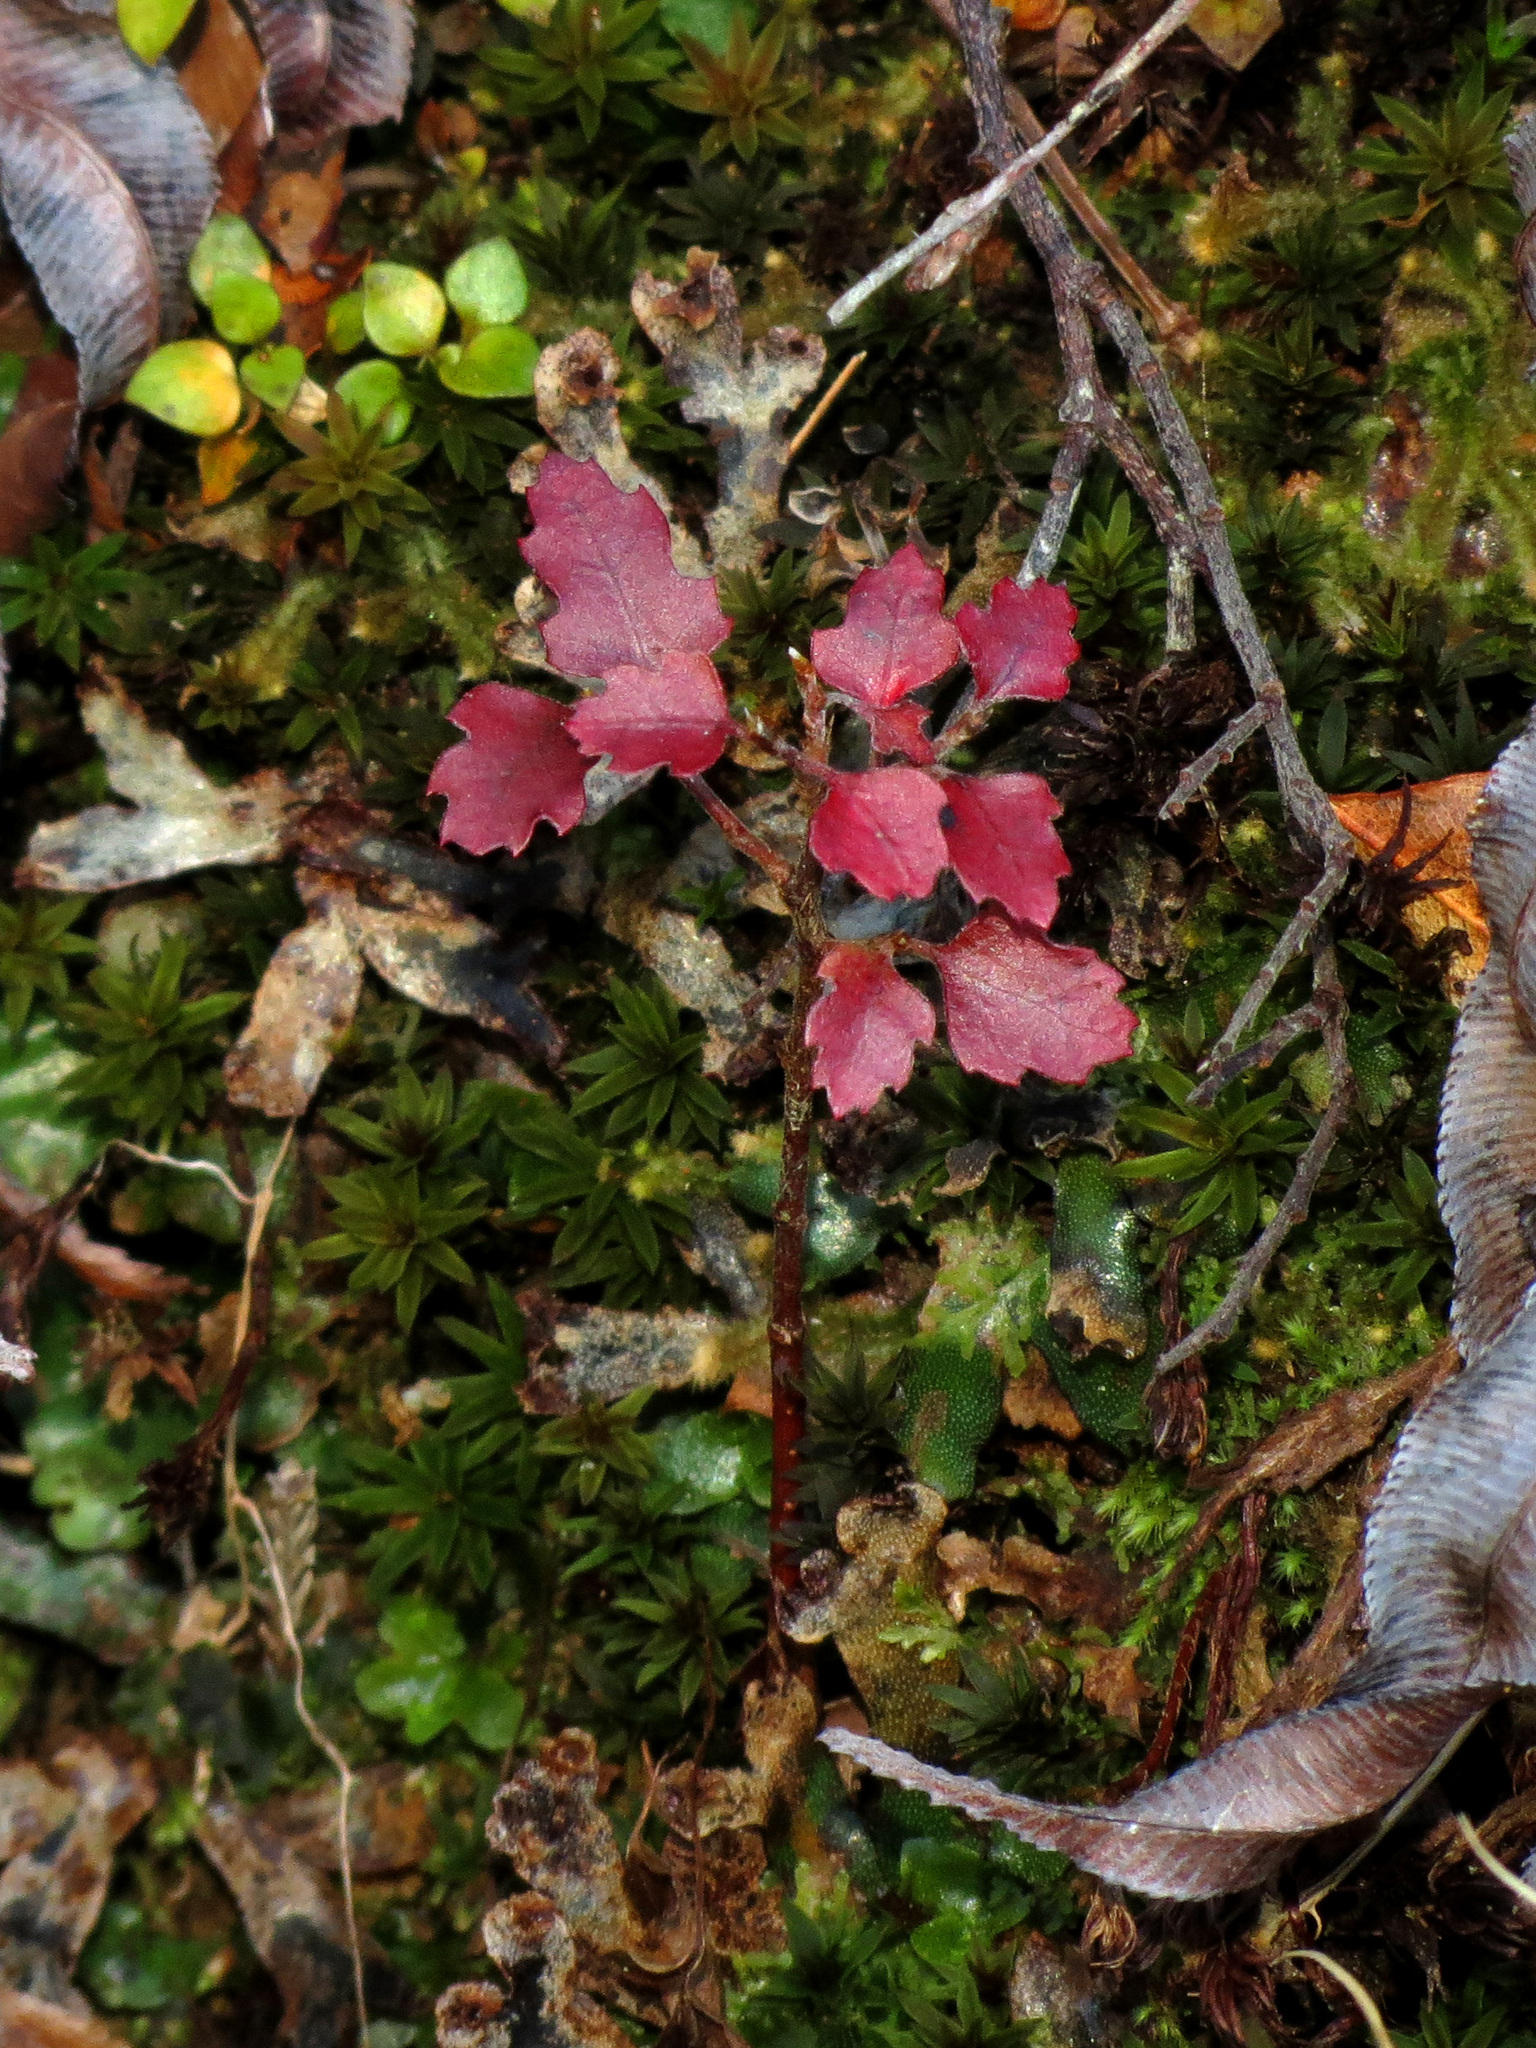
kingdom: Plantae
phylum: Tracheophyta
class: Magnoliopsida
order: Fagales
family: Nothofagaceae
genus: Nothofagus
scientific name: Nothofagus fusca
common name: Red beech
